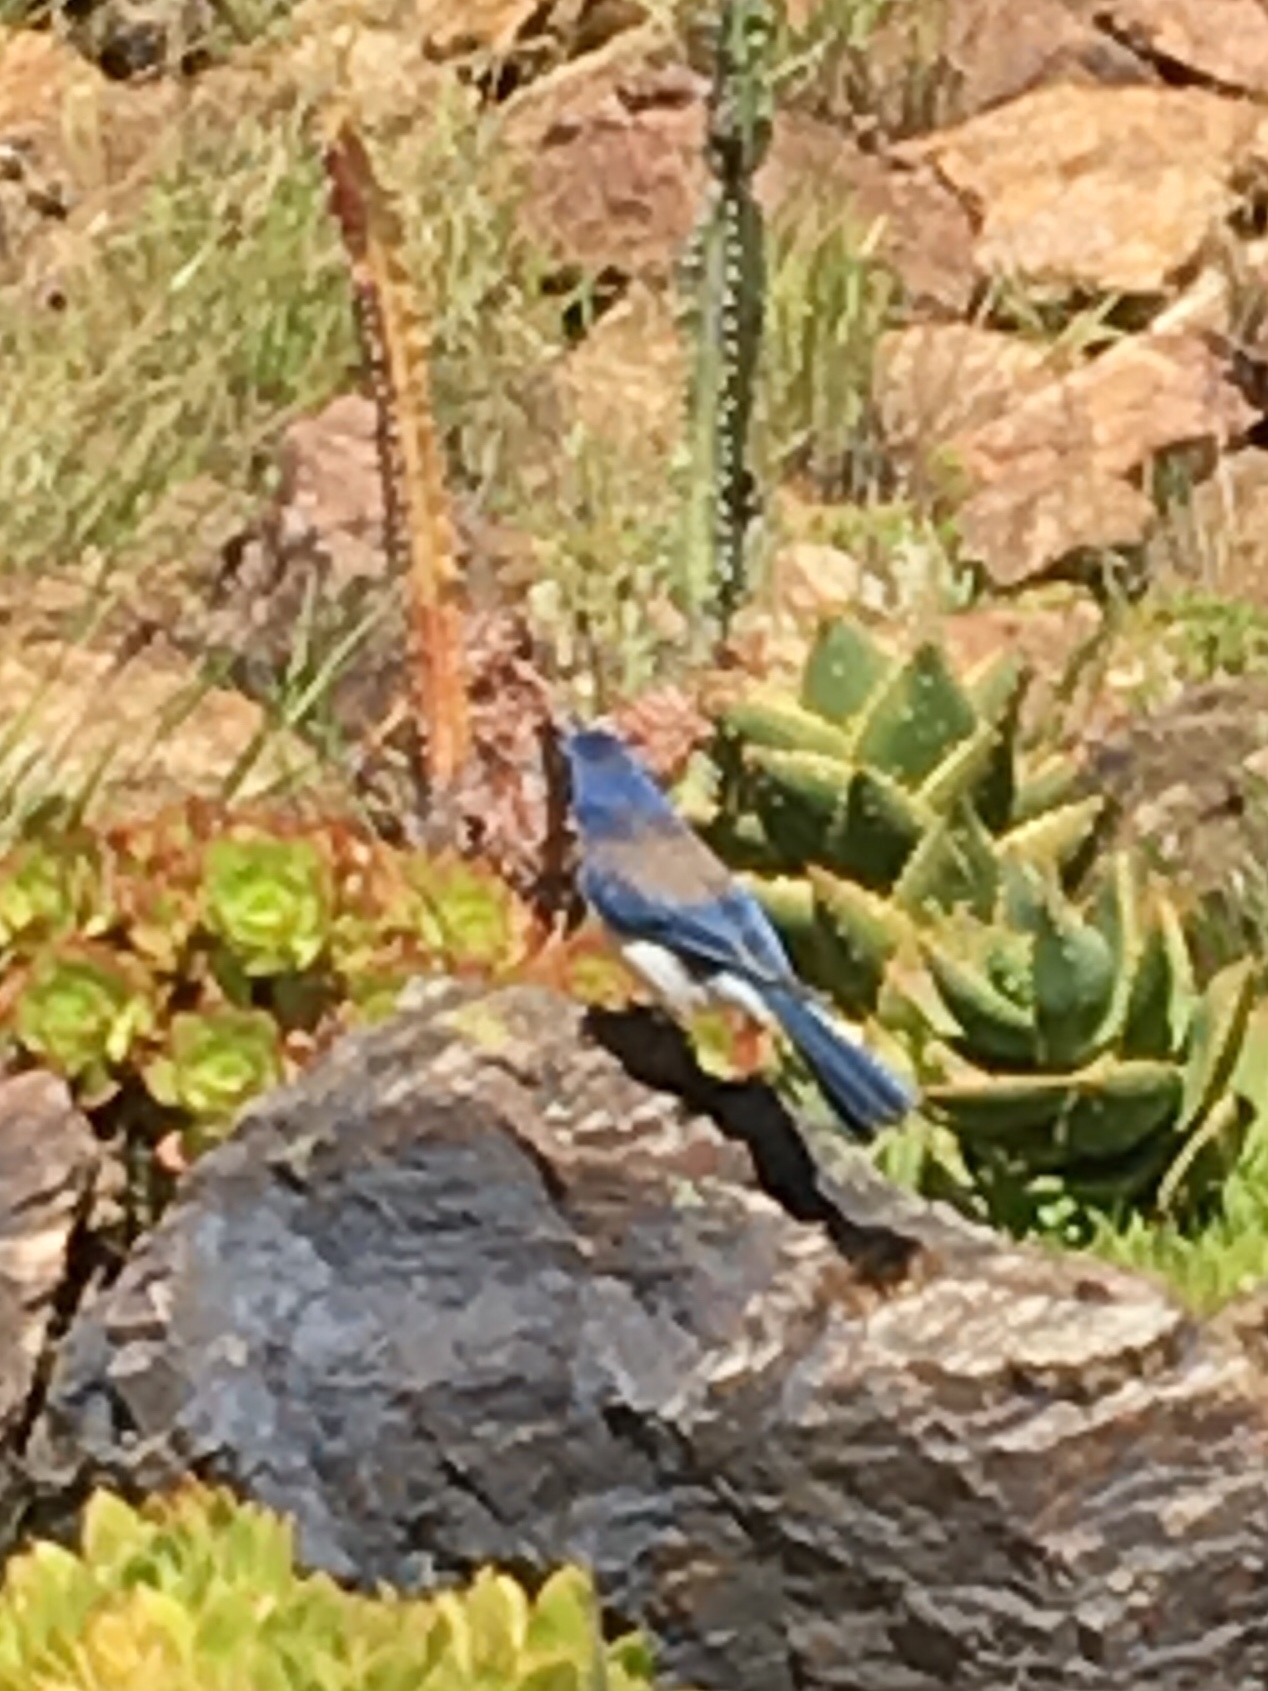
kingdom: Animalia
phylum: Chordata
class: Aves
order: Passeriformes
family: Corvidae
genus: Aphelocoma
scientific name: Aphelocoma californica
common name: California scrub-jay
